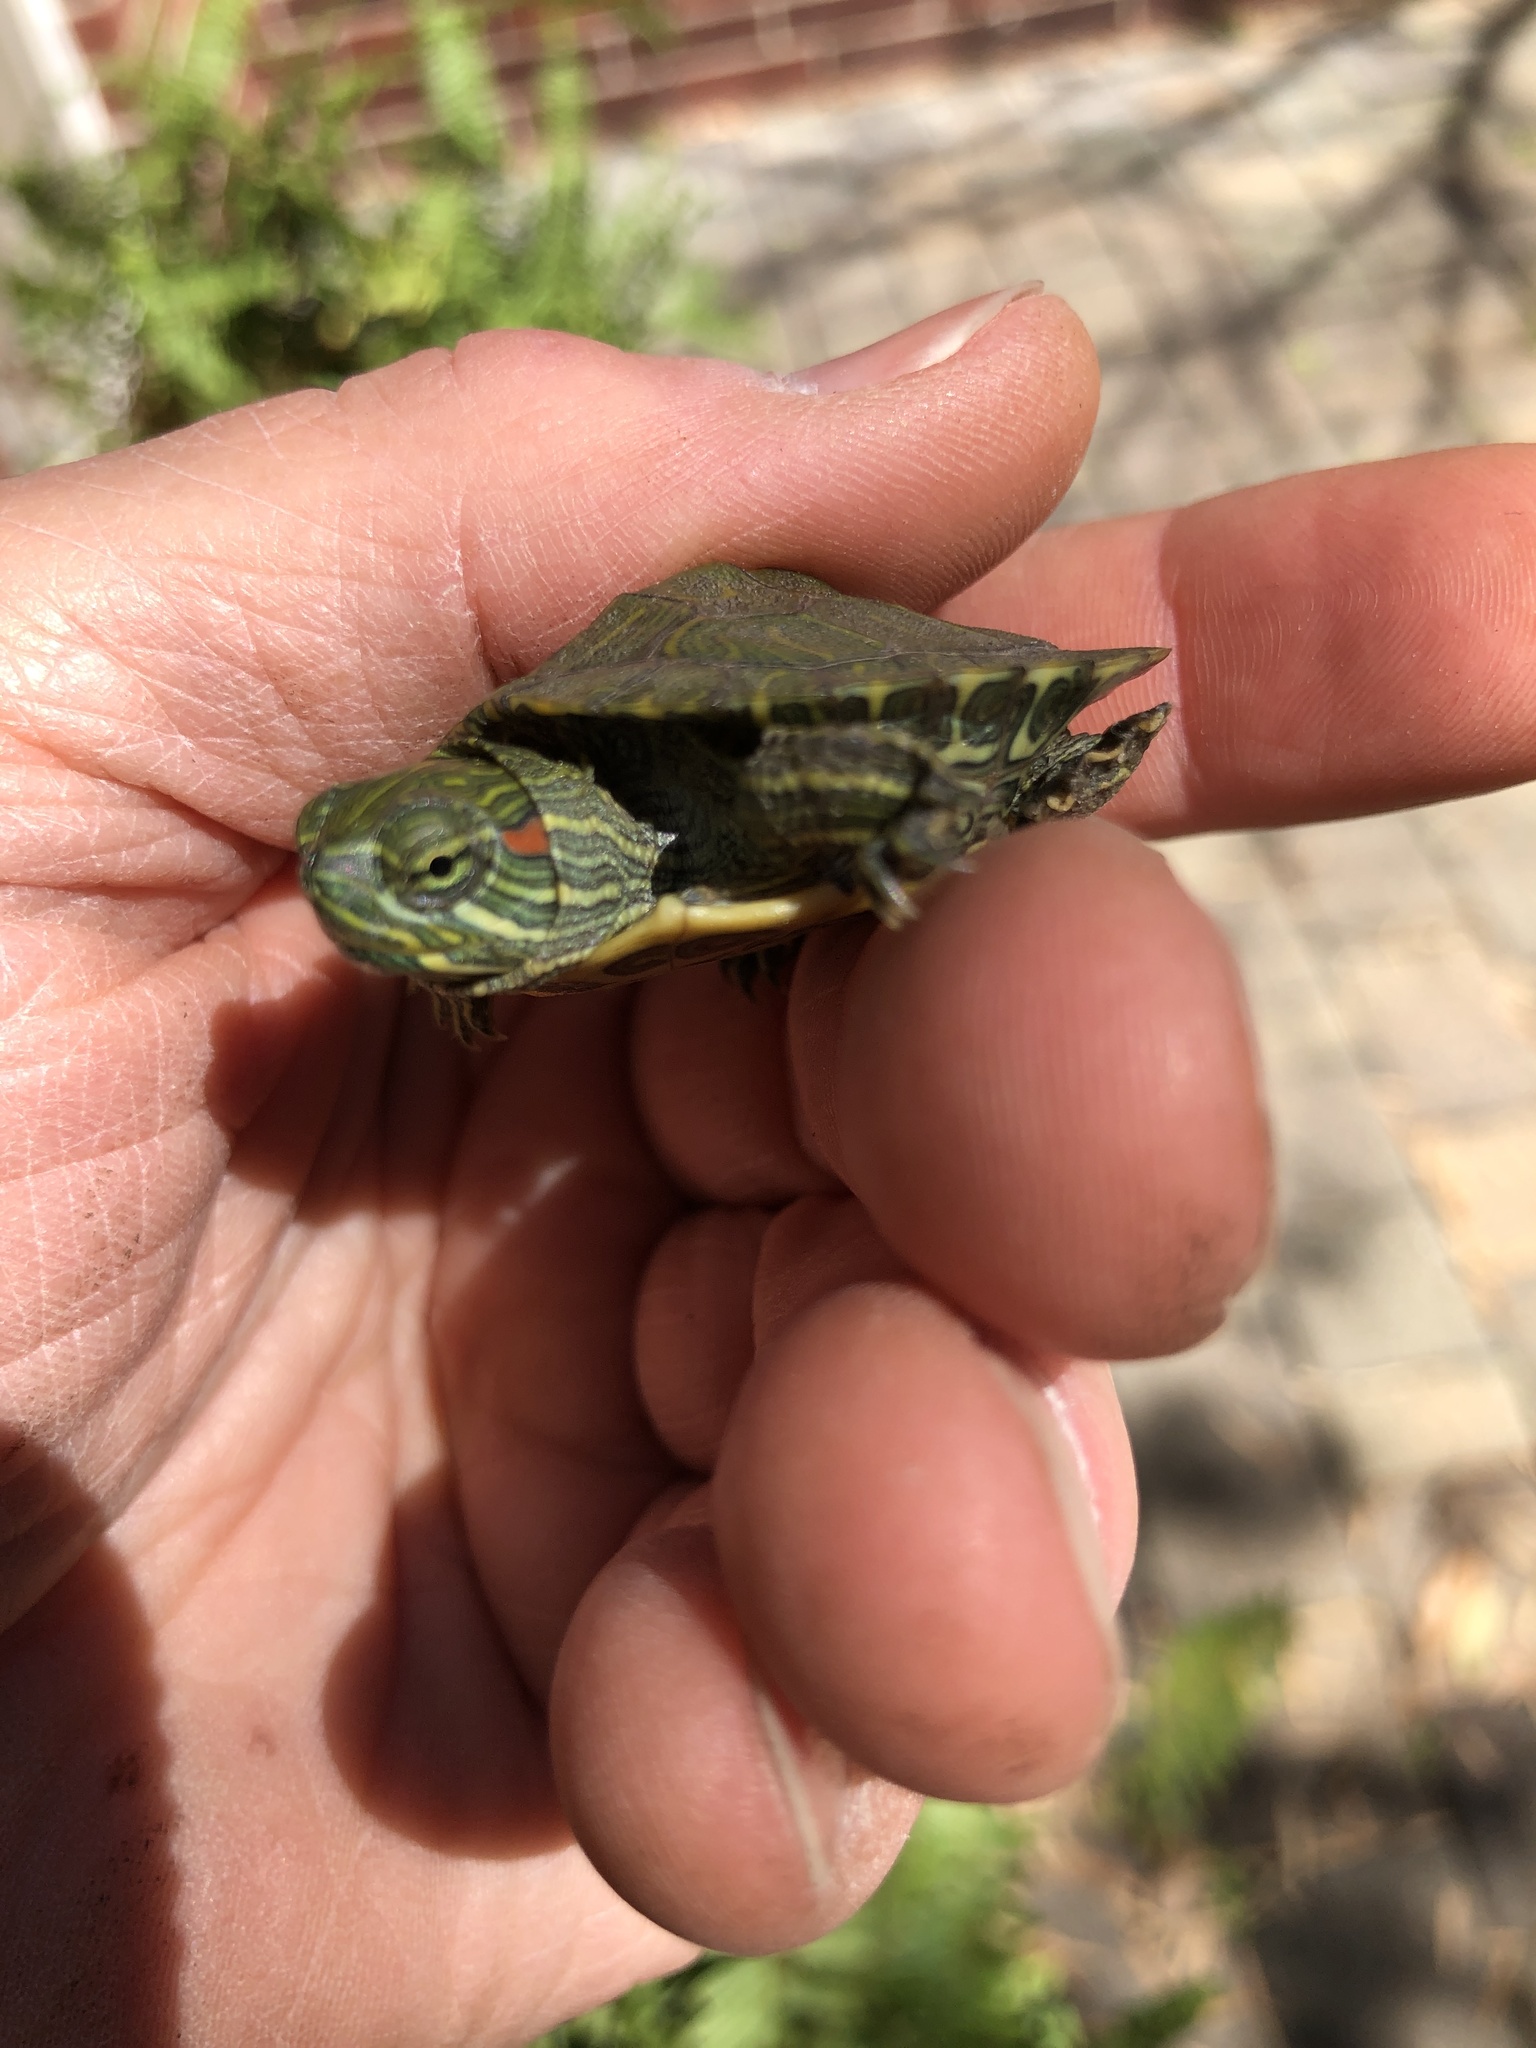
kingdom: Animalia
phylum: Chordata
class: Testudines
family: Emydidae
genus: Trachemys
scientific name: Trachemys scripta
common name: Slider
